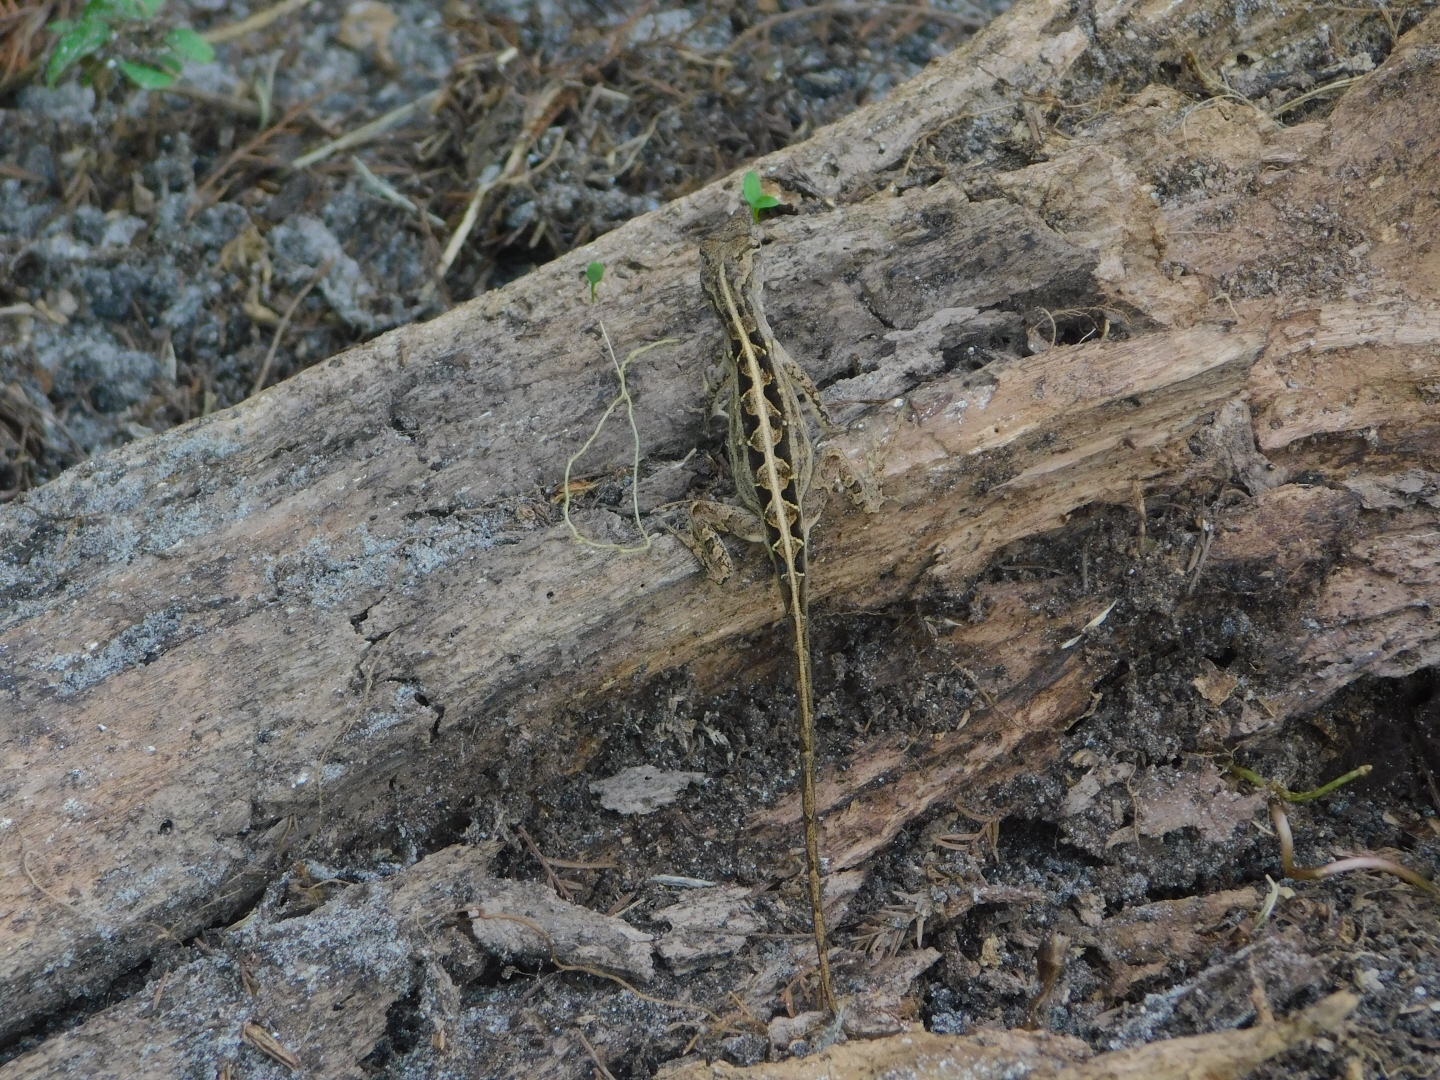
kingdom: Animalia
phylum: Chordata
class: Squamata
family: Dactyloidae
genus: Anolis
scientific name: Anolis sagrei
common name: Brown anole
